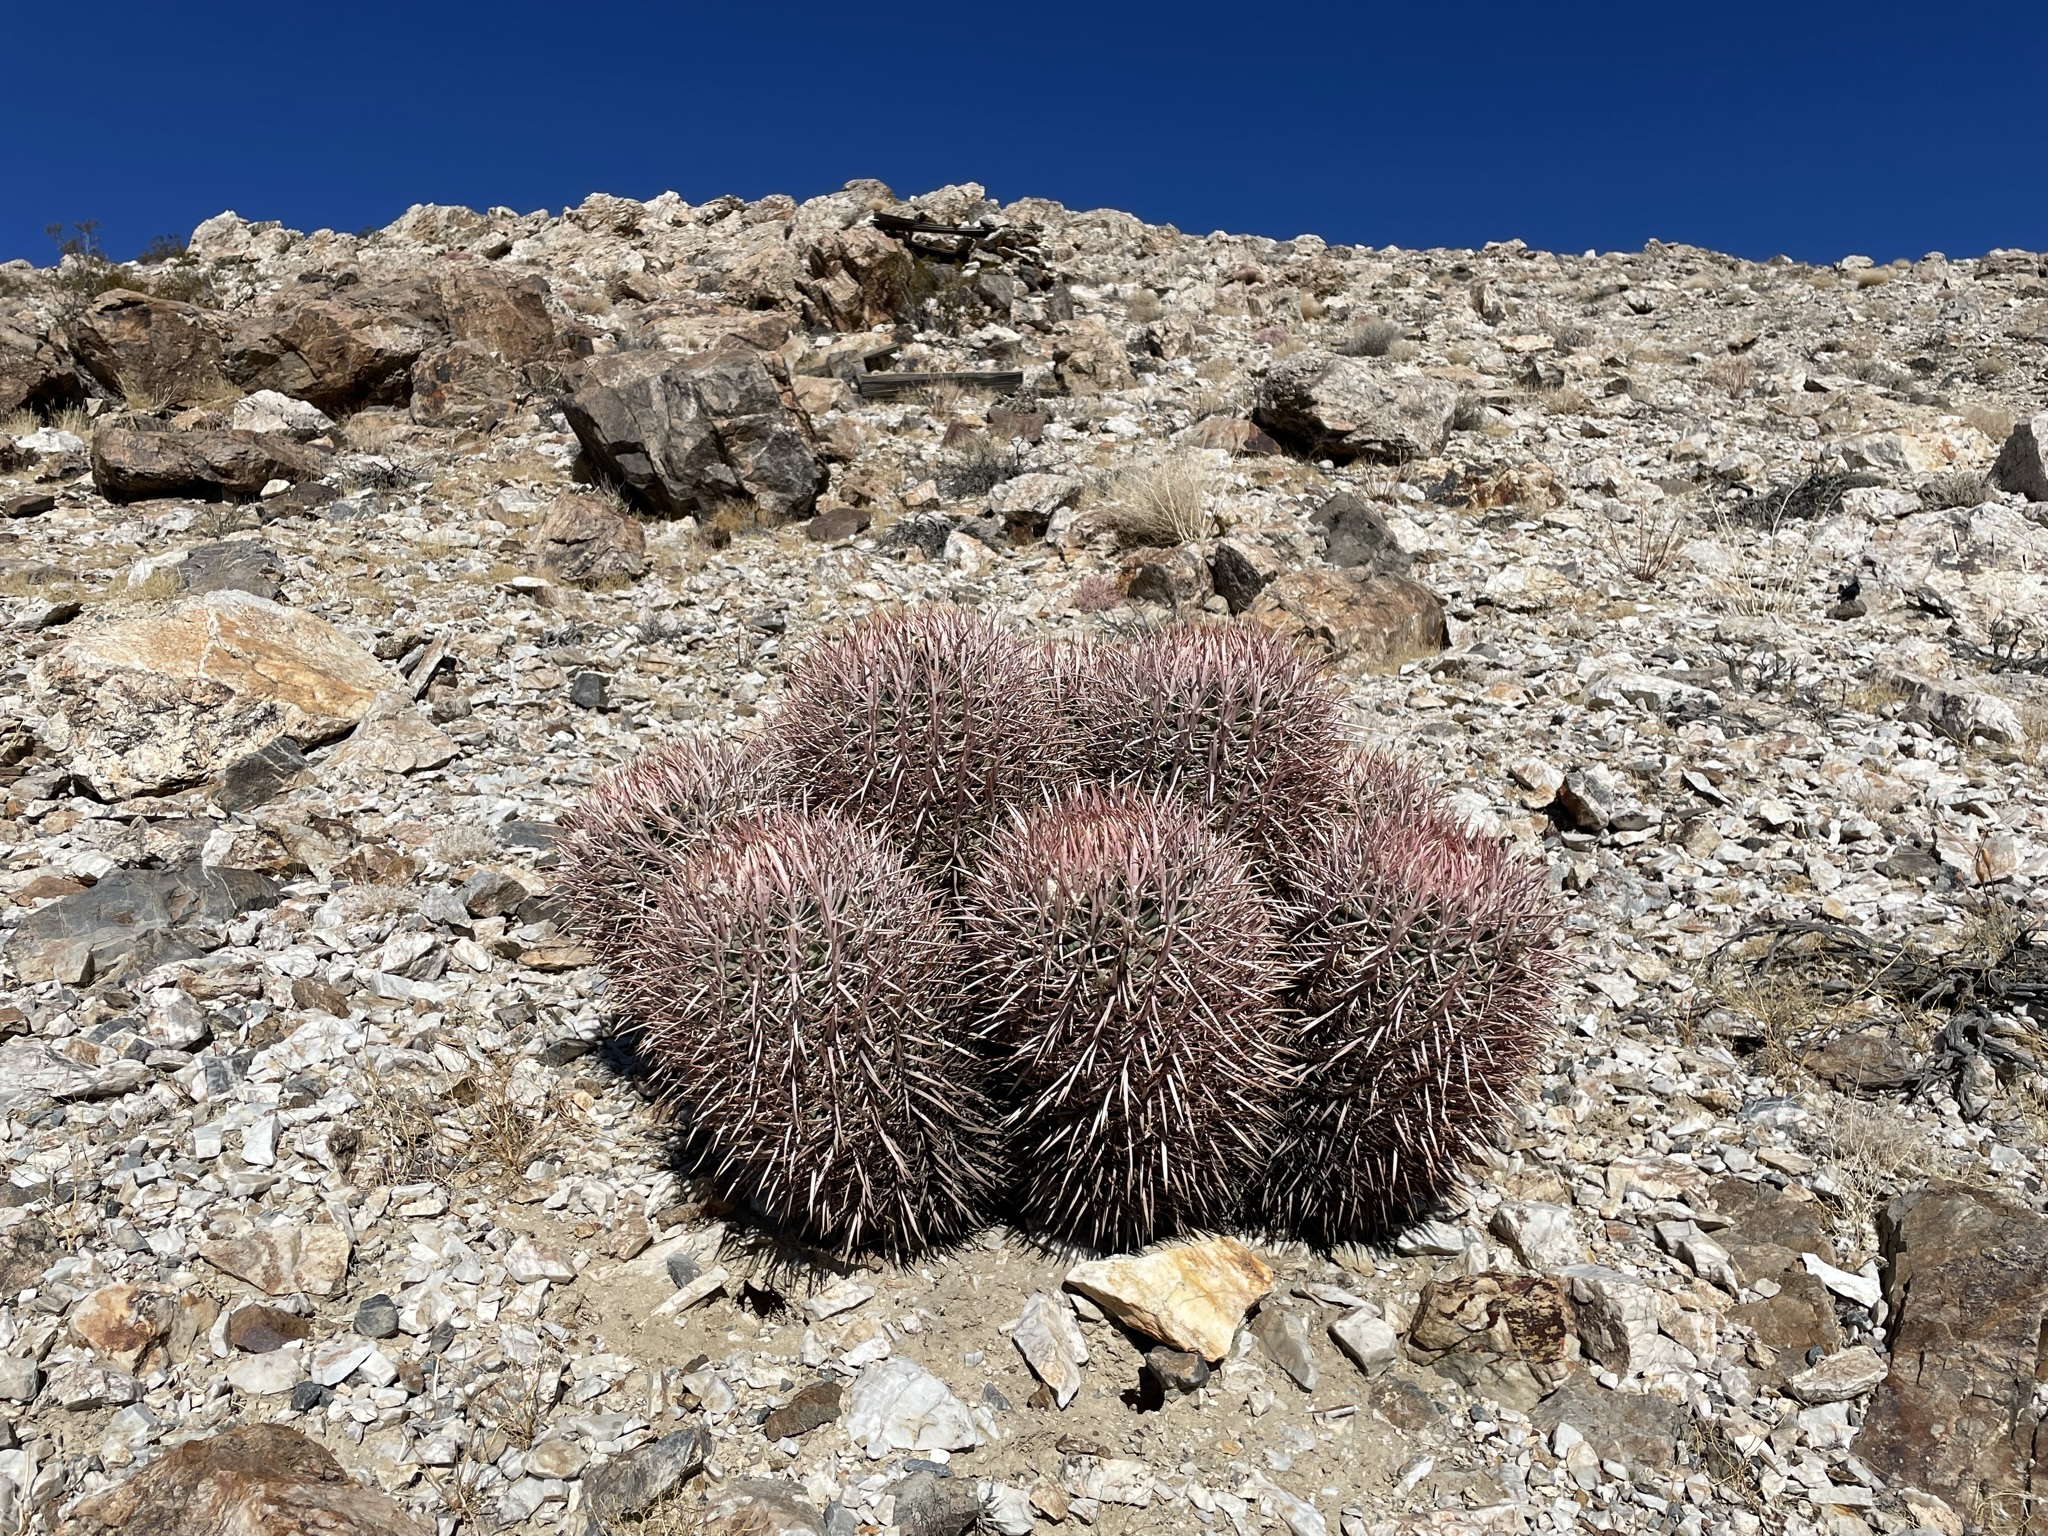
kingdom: Plantae
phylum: Tracheophyta
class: Magnoliopsida
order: Caryophyllales
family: Cactaceae
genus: Echinocactus
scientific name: Echinocactus polycephalus
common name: Cottontop cactus
